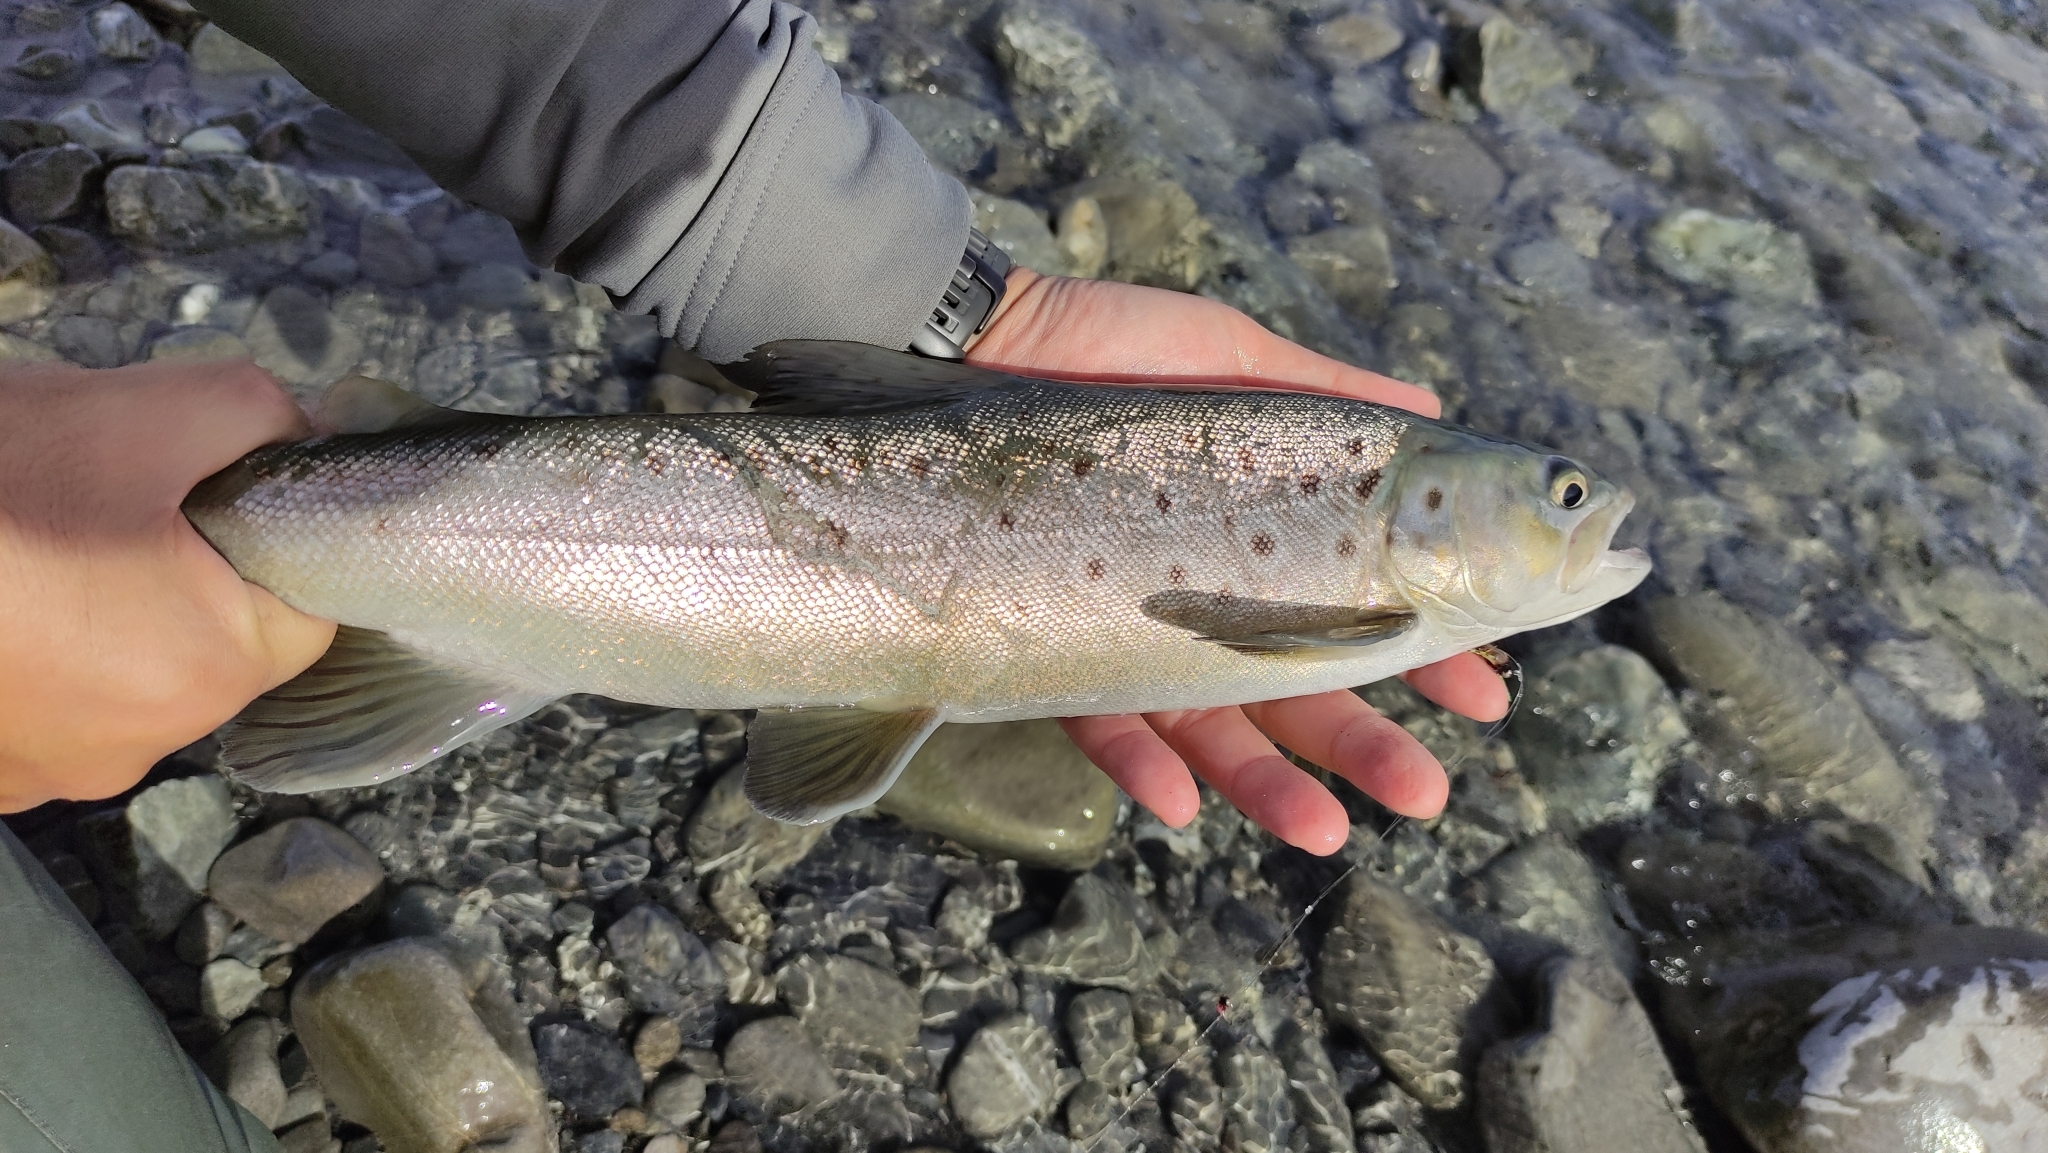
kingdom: Animalia
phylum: Chordata
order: Salmoniformes
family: Salmonidae
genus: Salmo
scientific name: Salmo trutta
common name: Brown trout
